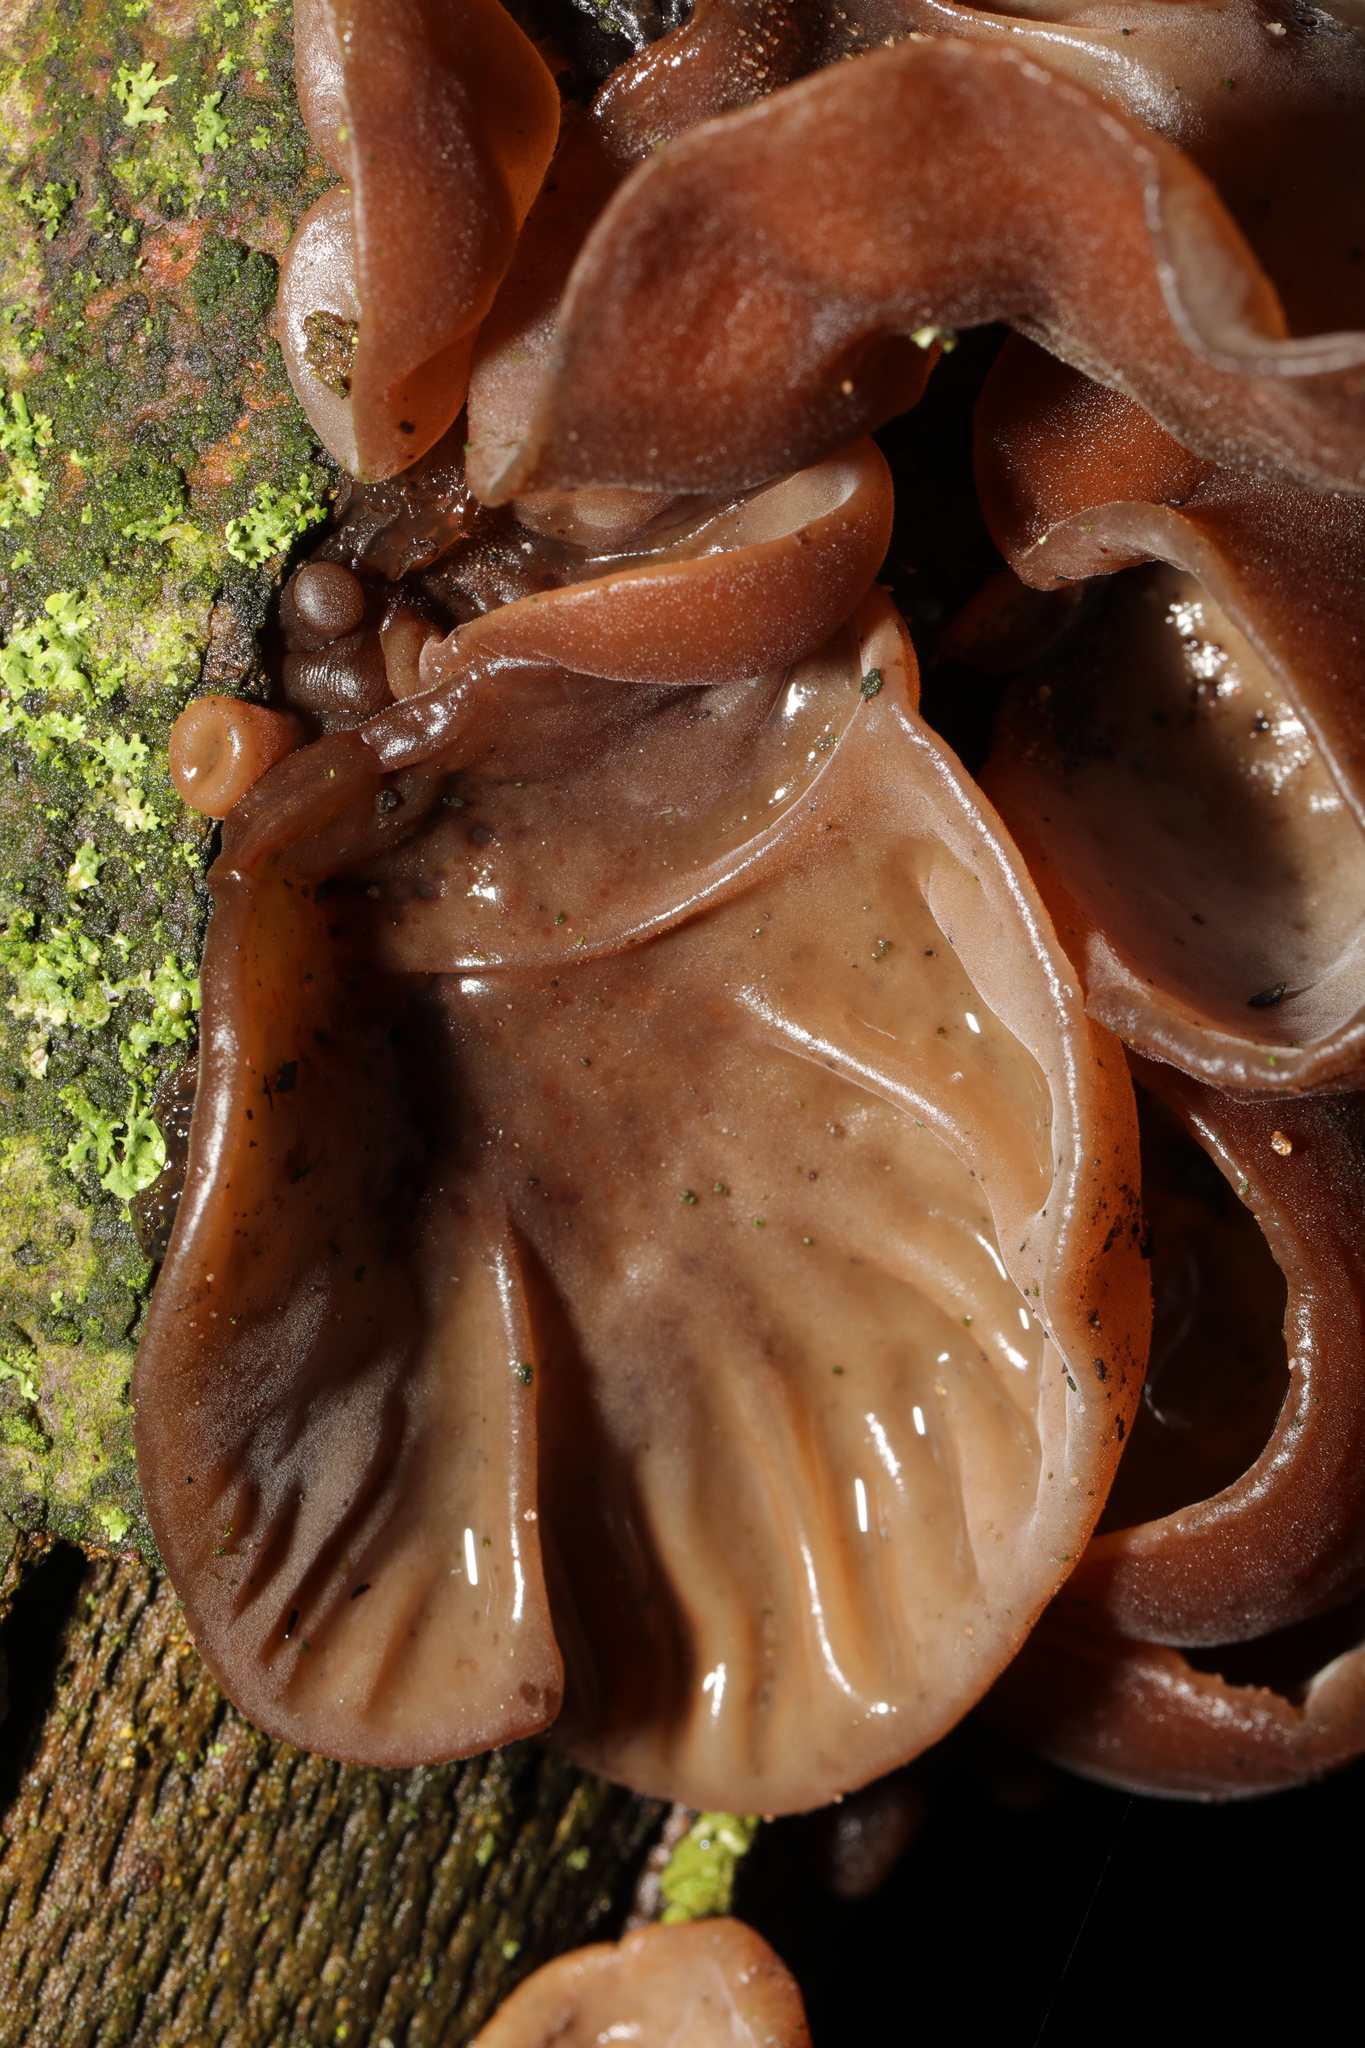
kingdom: Fungi
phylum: Basidiomycota
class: Agaricomycetes
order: Auriculariales
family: Auriculariaceae
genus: Auricularia
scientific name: Auricularia auricula-judae
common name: Jelly ear
